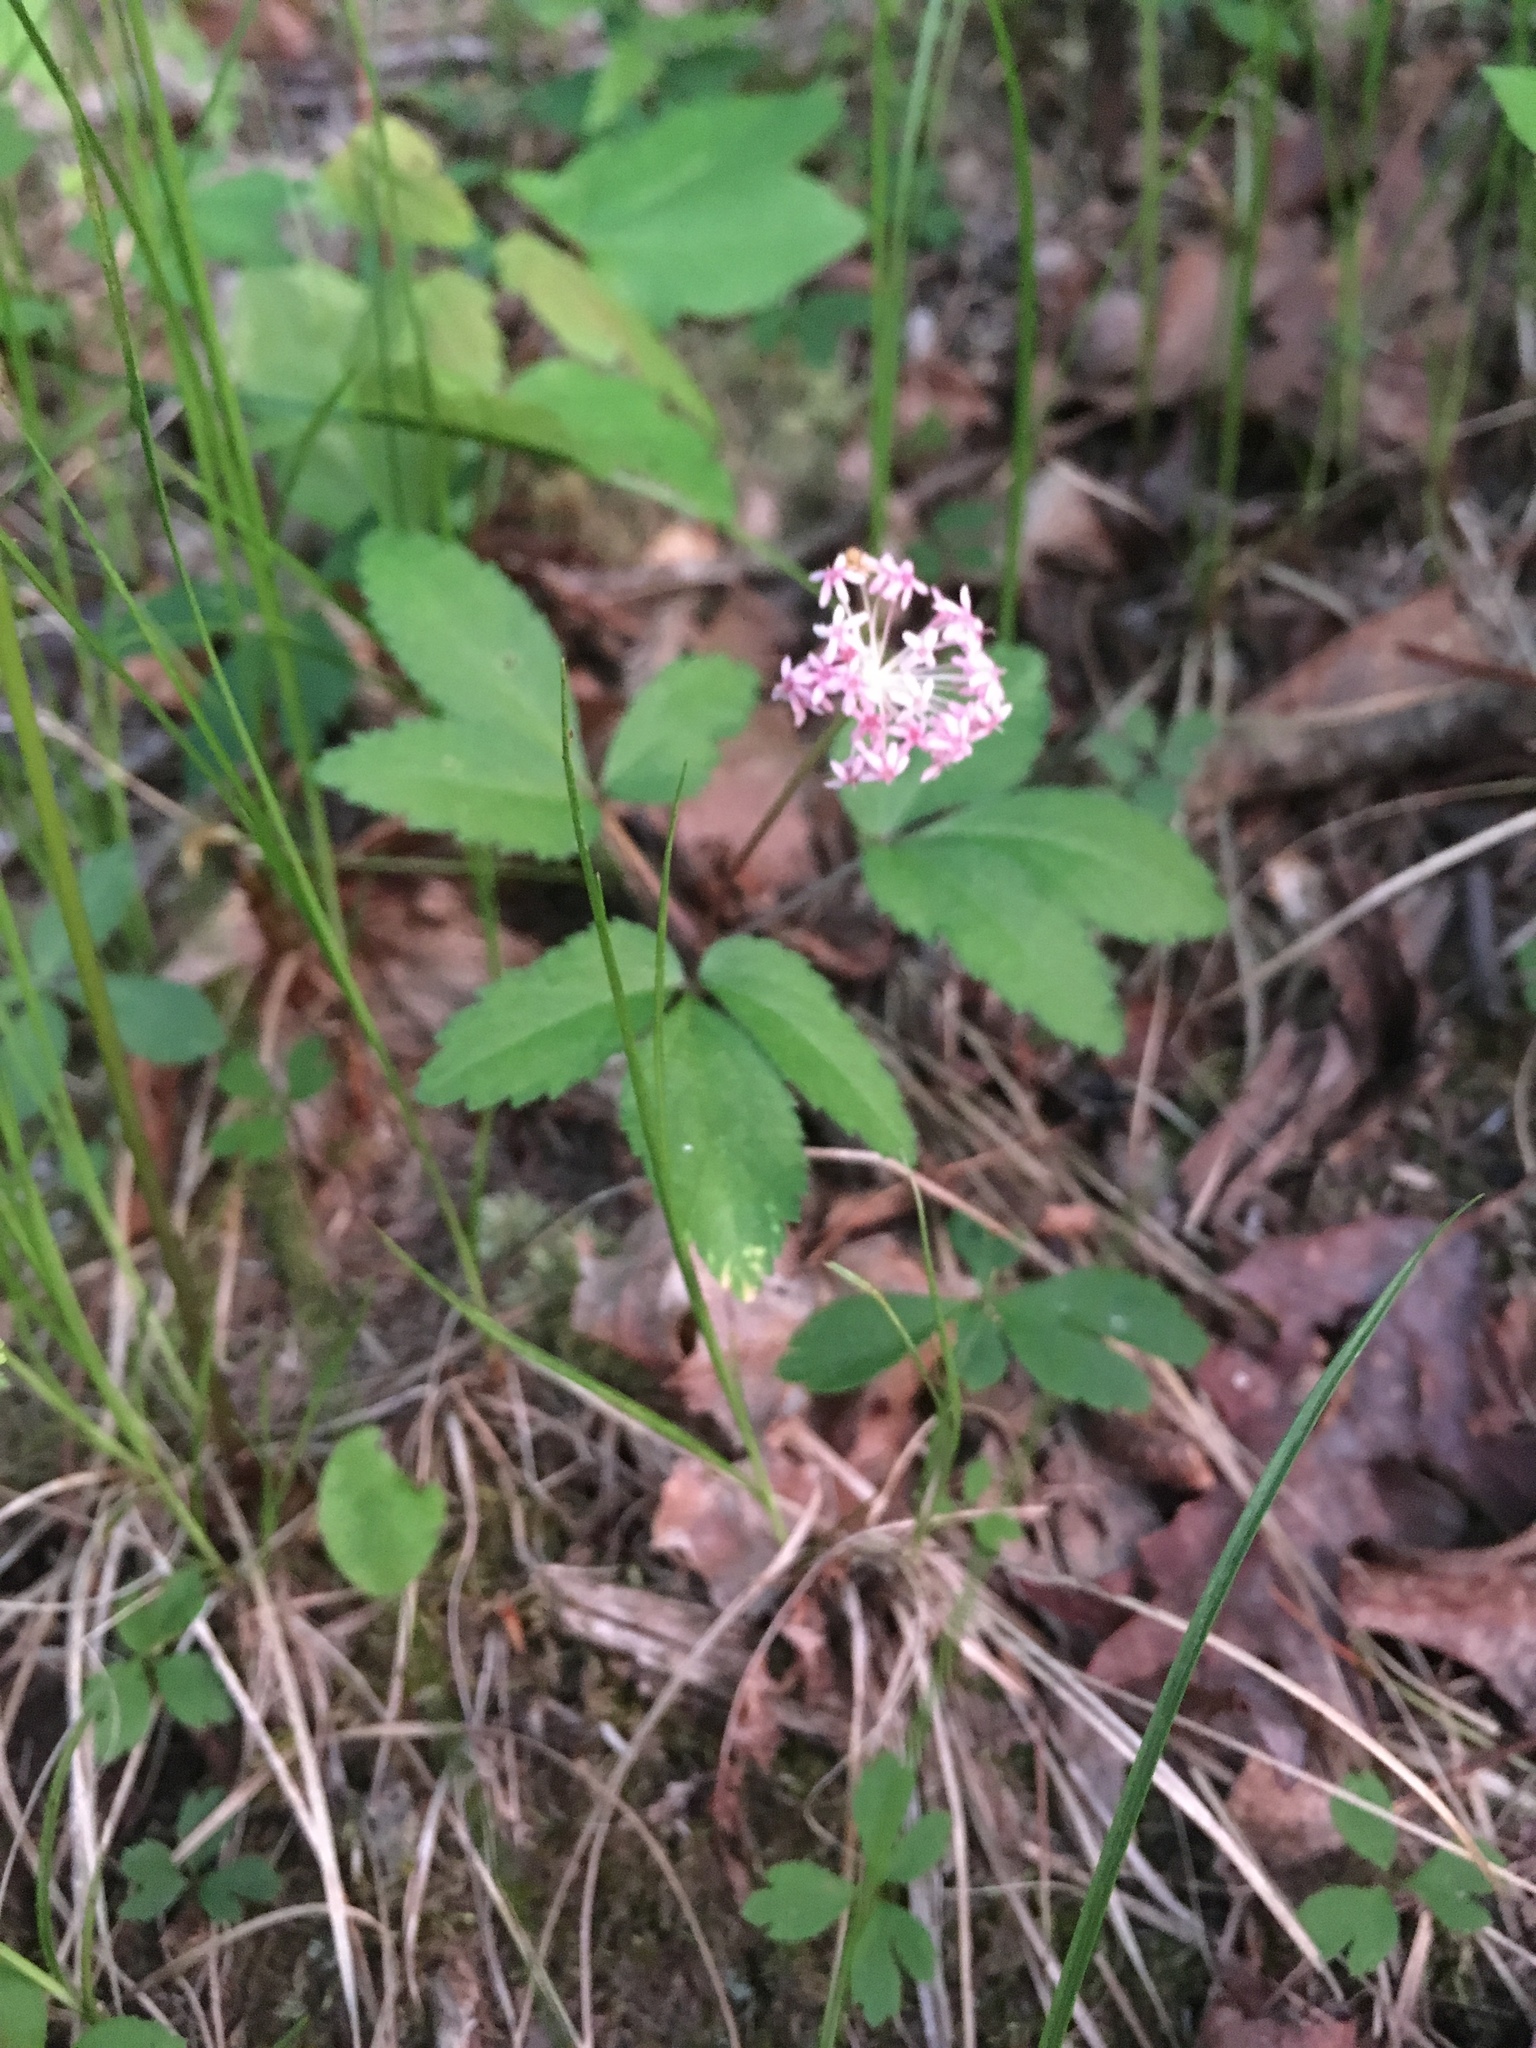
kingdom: Plantae
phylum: Tracheophyta
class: Magnoliopsida
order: Apiales
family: Araliaceae
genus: Panax
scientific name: Panax trifolius
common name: Dwarf ginseng
